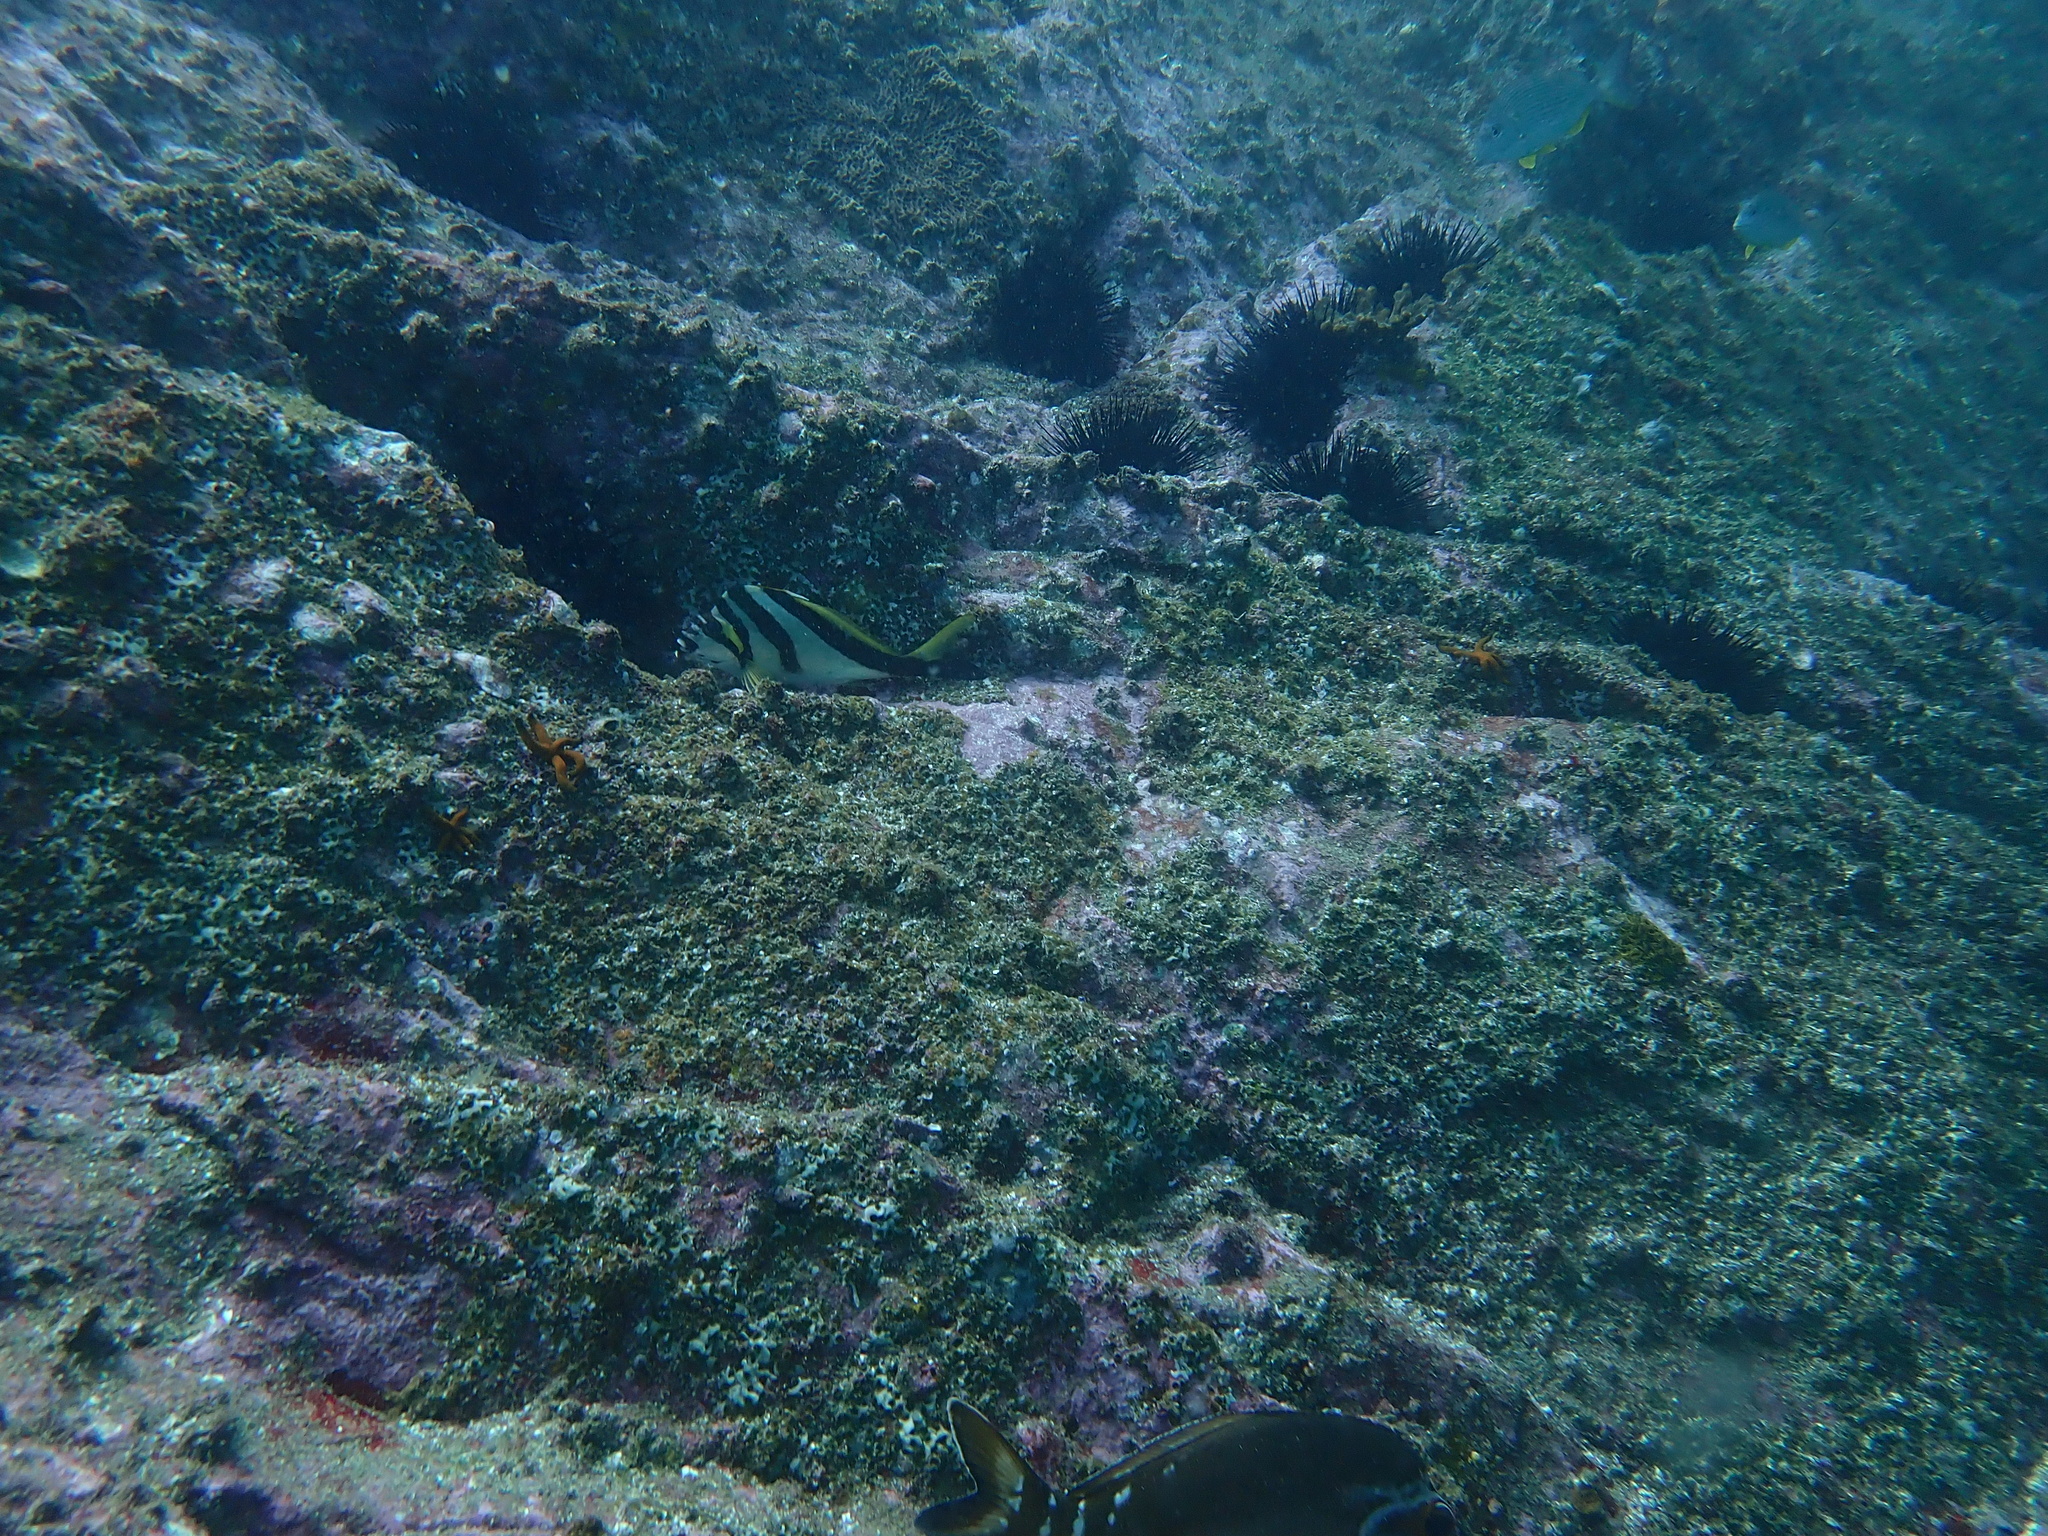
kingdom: Animalia
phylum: Chordata
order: Perciformes
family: Cheilodactylidae
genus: Cheilodactylus
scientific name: Cheilodactylus vestitus
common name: Crested morwong
